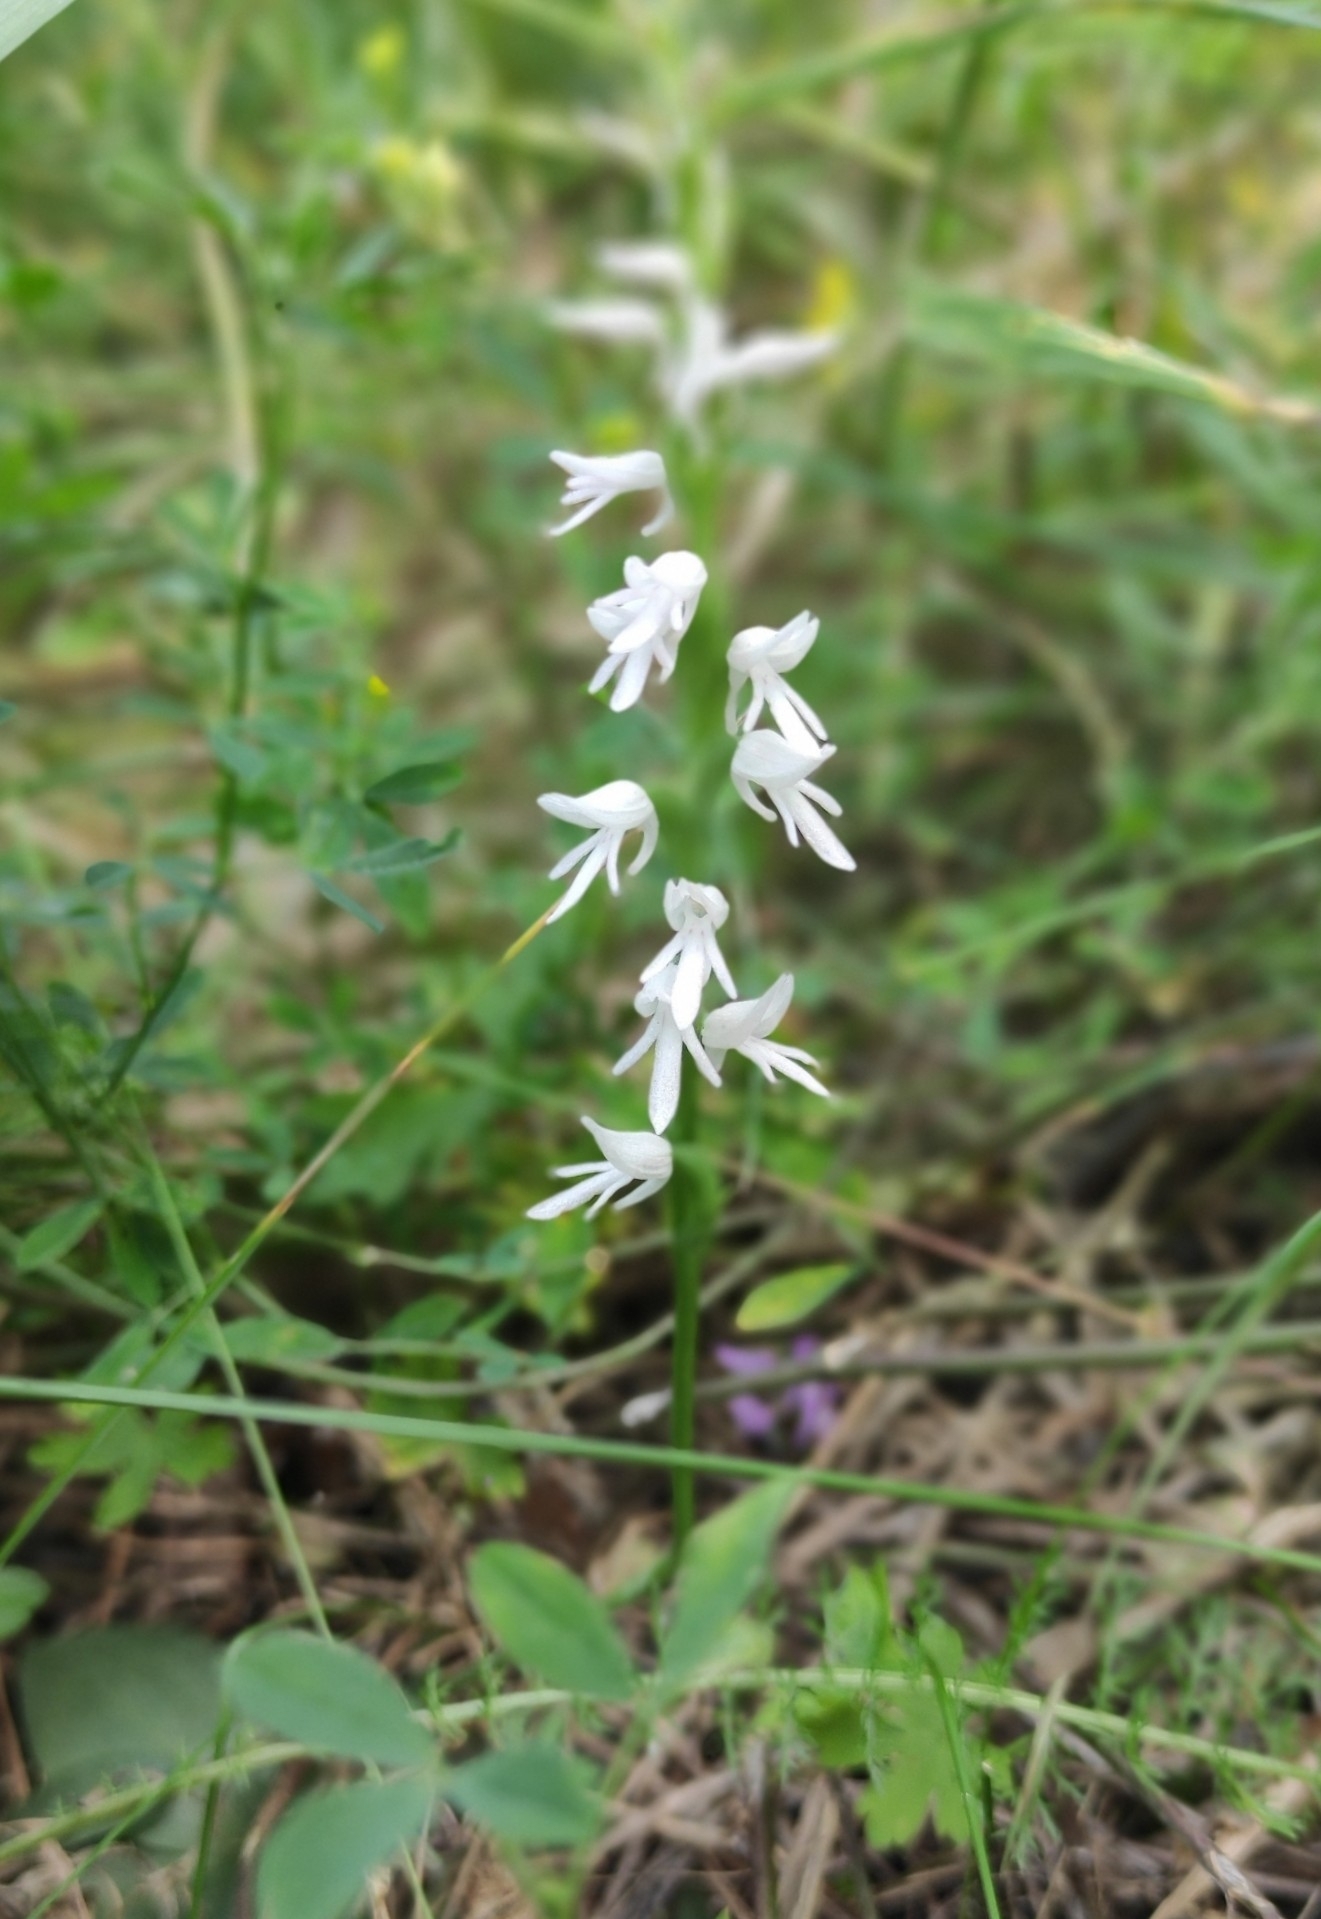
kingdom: Plantae
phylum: Tracheophyta
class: Liliopsida
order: Asparagales
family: Orchidaceae
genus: Hemipilia
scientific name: Hemipilia cucullata
